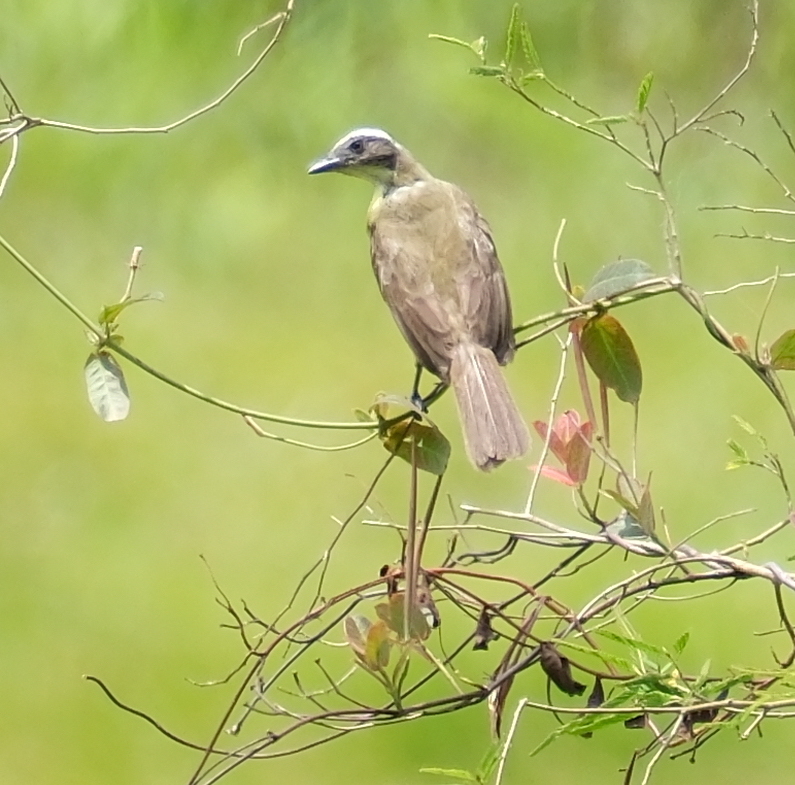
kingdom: Animalia
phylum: Chordata
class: Aves
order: Passeriformes
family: Tyrannidae
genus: Myiozetetes
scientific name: Myiozetetes similis
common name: Social flycatcher
